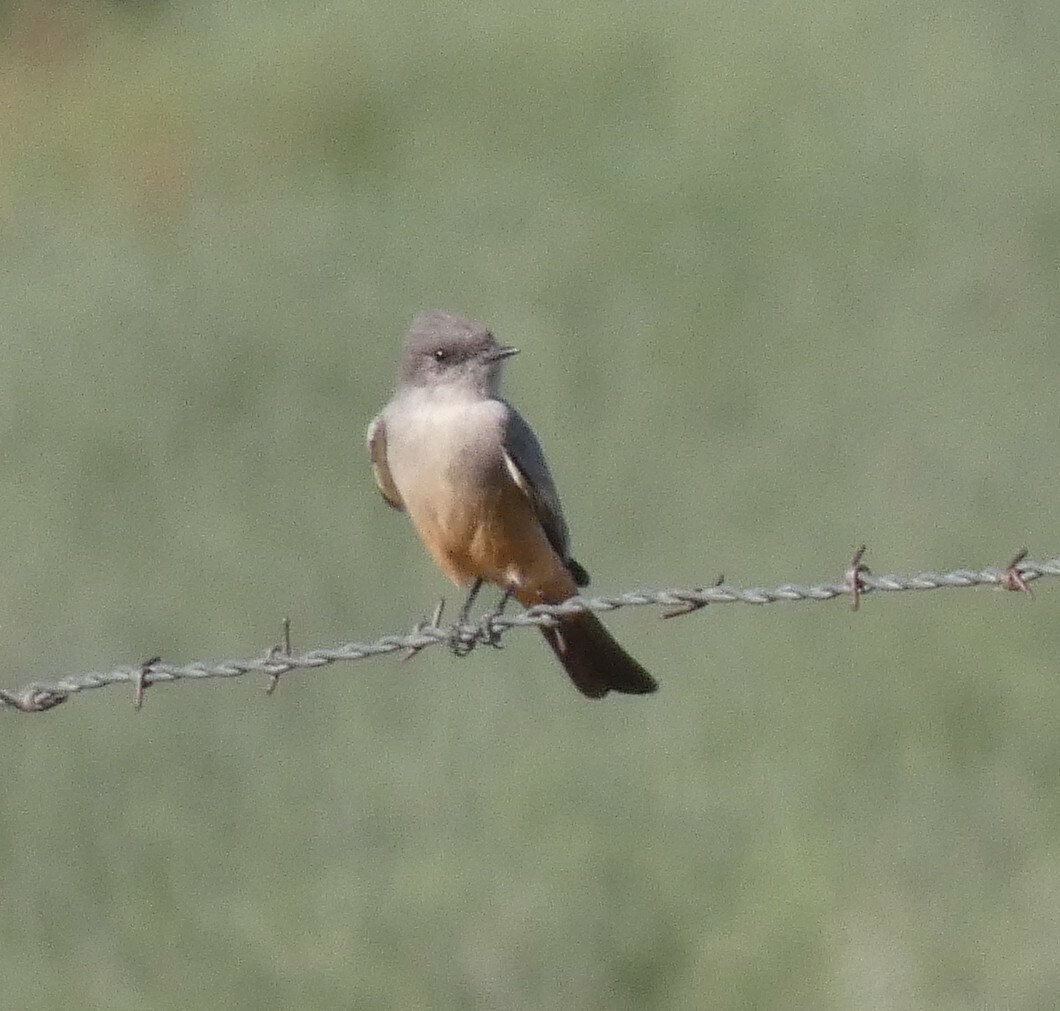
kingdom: Animalia
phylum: Chordata
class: Aves
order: Passeriformes
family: Tyrannidae
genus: Sayornis
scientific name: Sayornis saya
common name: Say's phoebe
